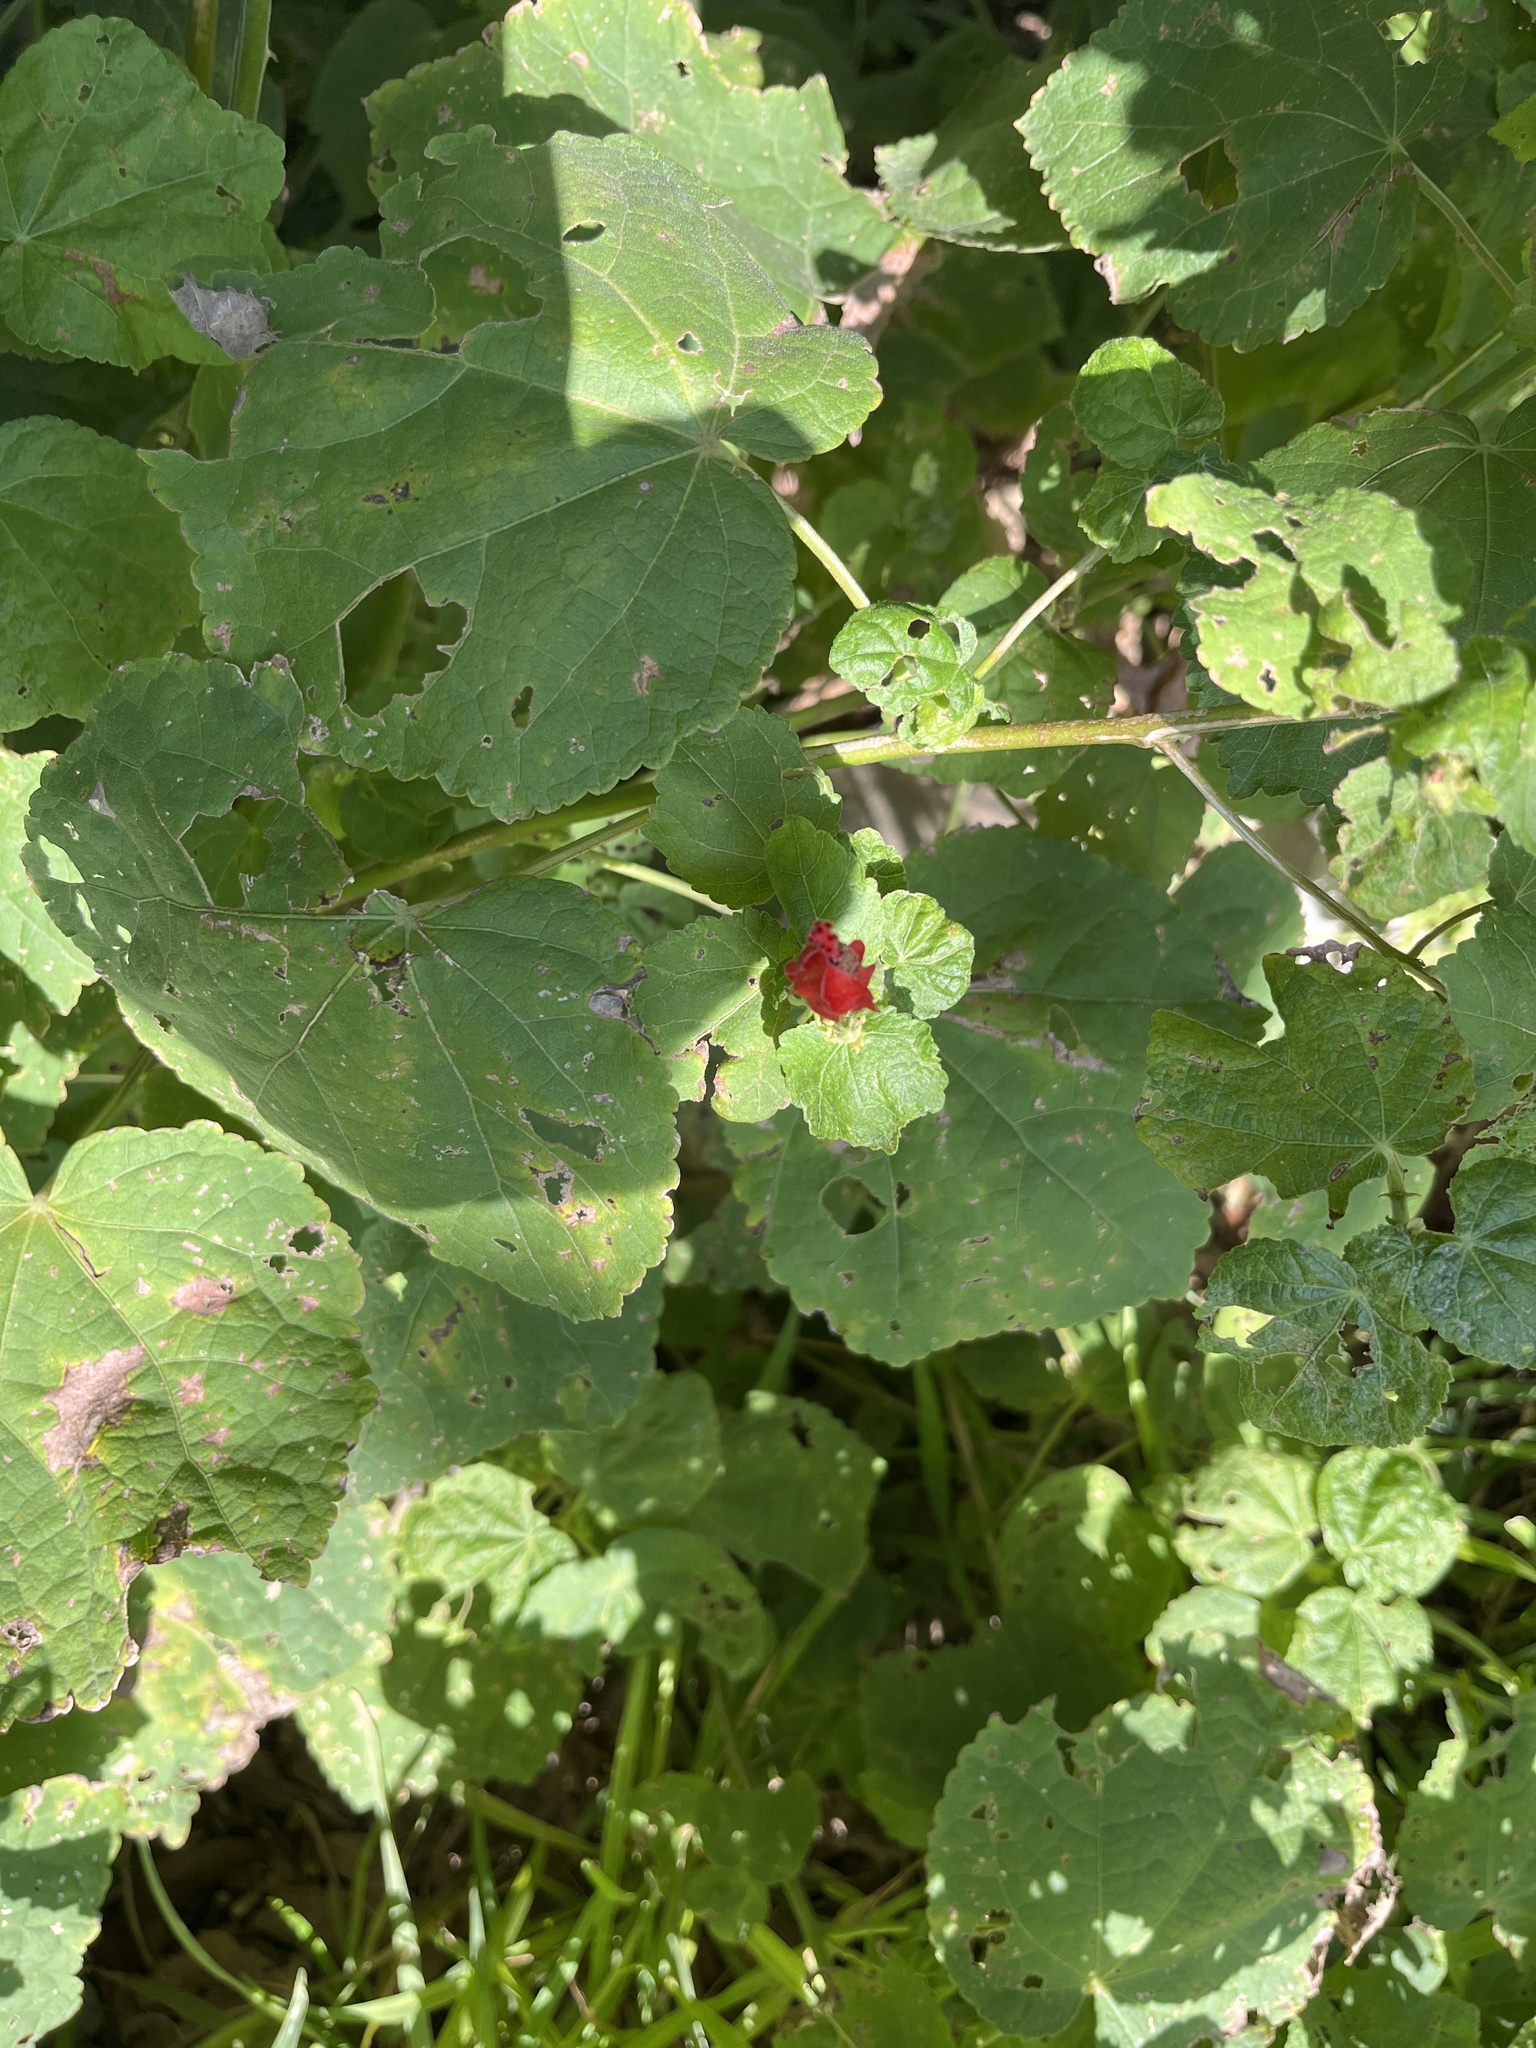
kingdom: Plantae
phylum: Tracheophyta
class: Magnoliopsida
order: Malvales
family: Malvaceae
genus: Malvaviscus
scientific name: Malvaviscus arboreus
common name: Wax mallow
